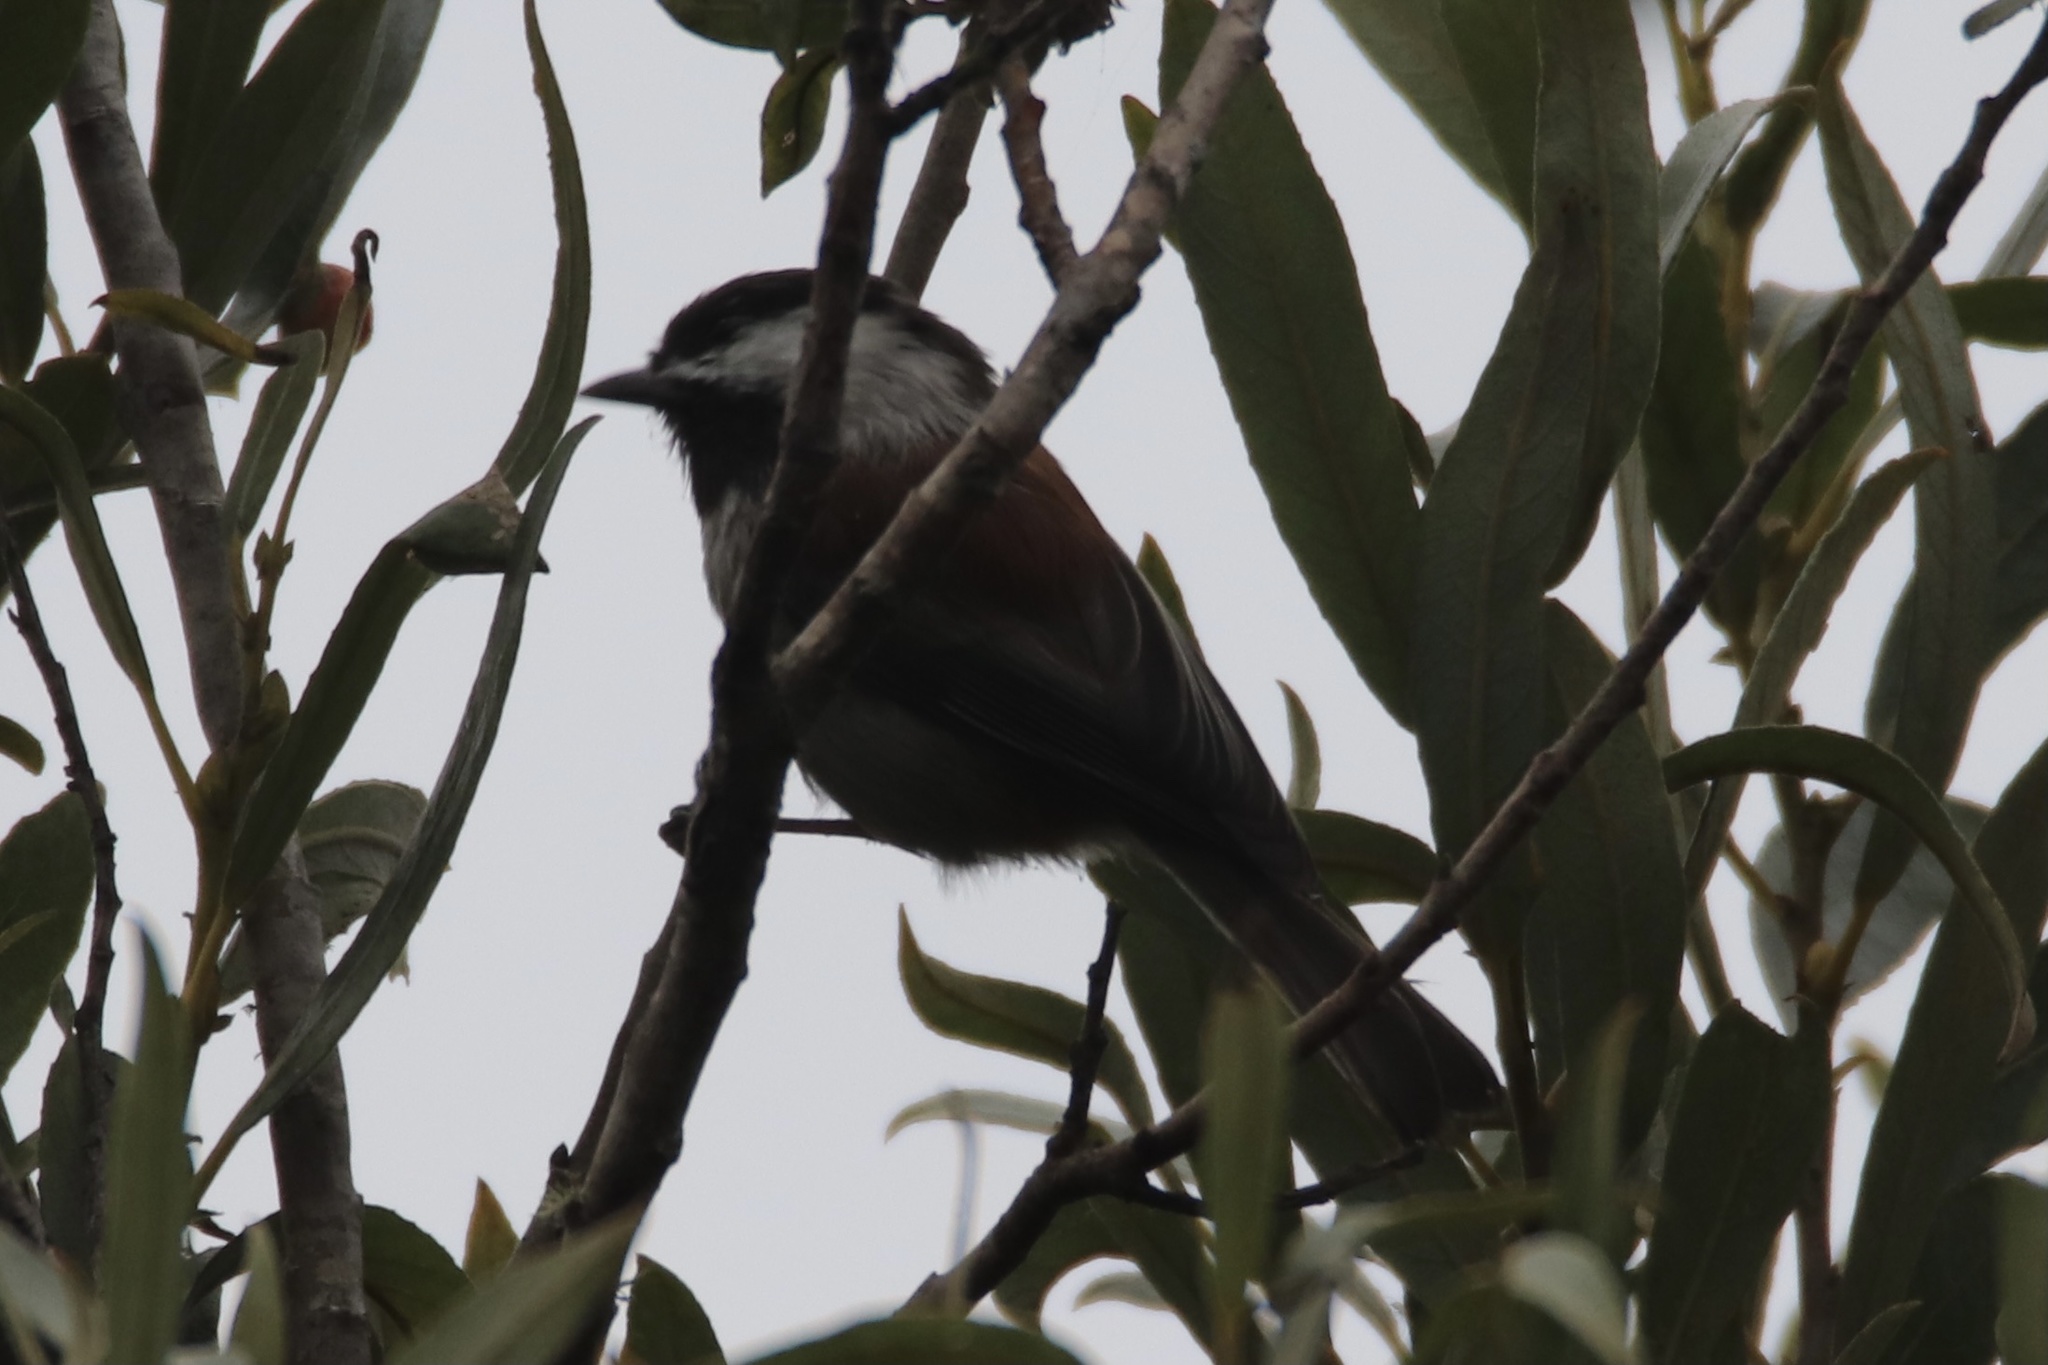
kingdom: Animalia
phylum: Chordata
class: Aves
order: Passeriformes
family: Paridae
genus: Poecile
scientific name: Poecile rufescens
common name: Chestnut-backed chickadee
